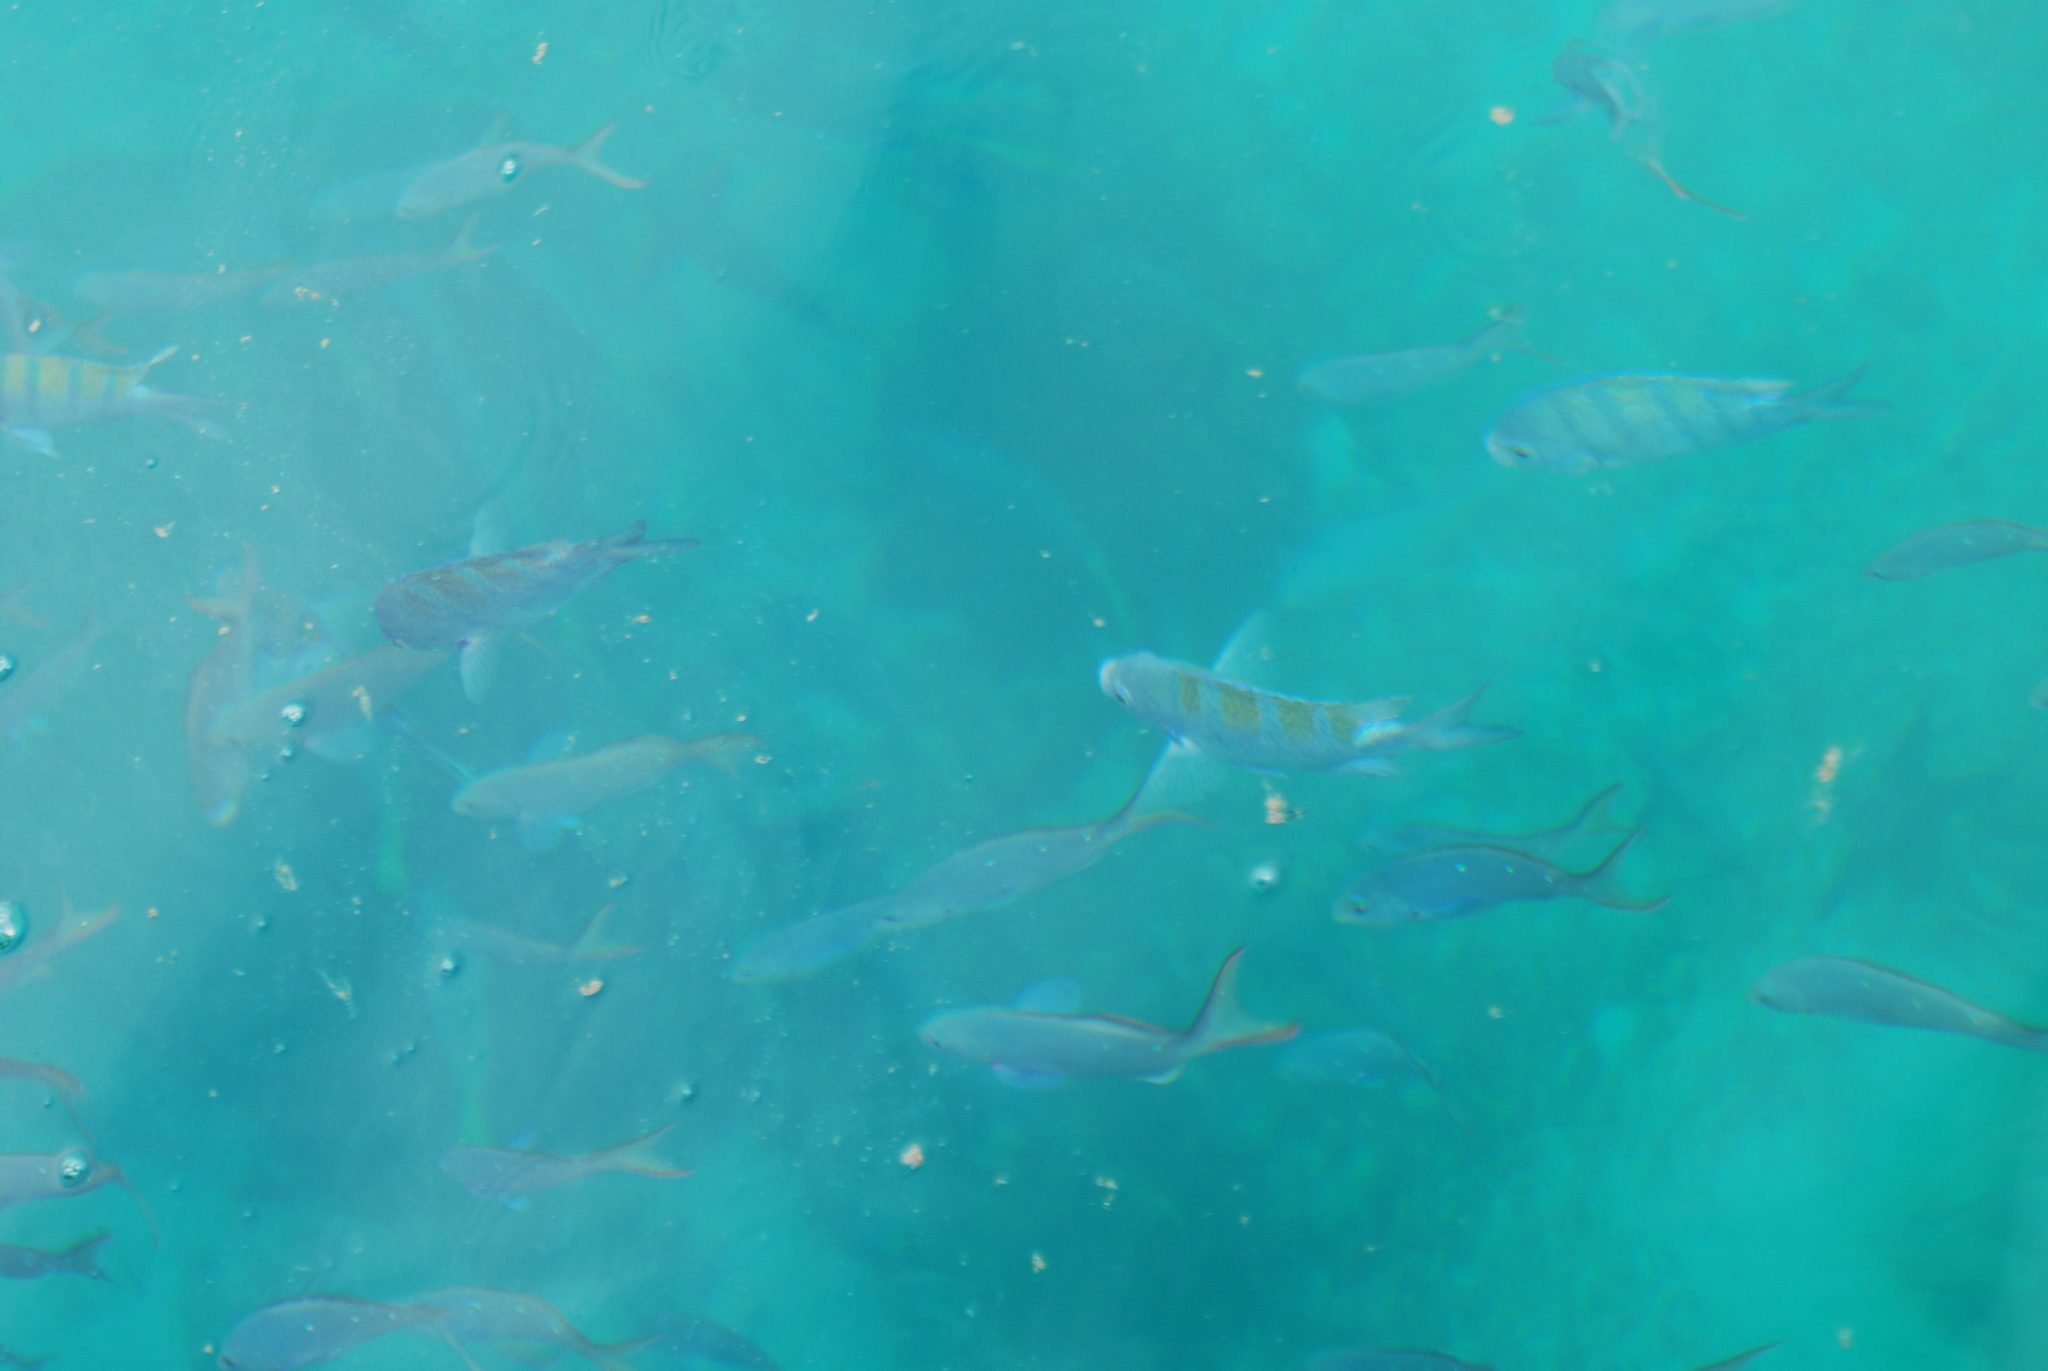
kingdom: Animalia
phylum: Chordata
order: Perciformes
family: Pomacentridae
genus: Abudefduf
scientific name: Abudefduf troschelii
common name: Panamic sergeant major
